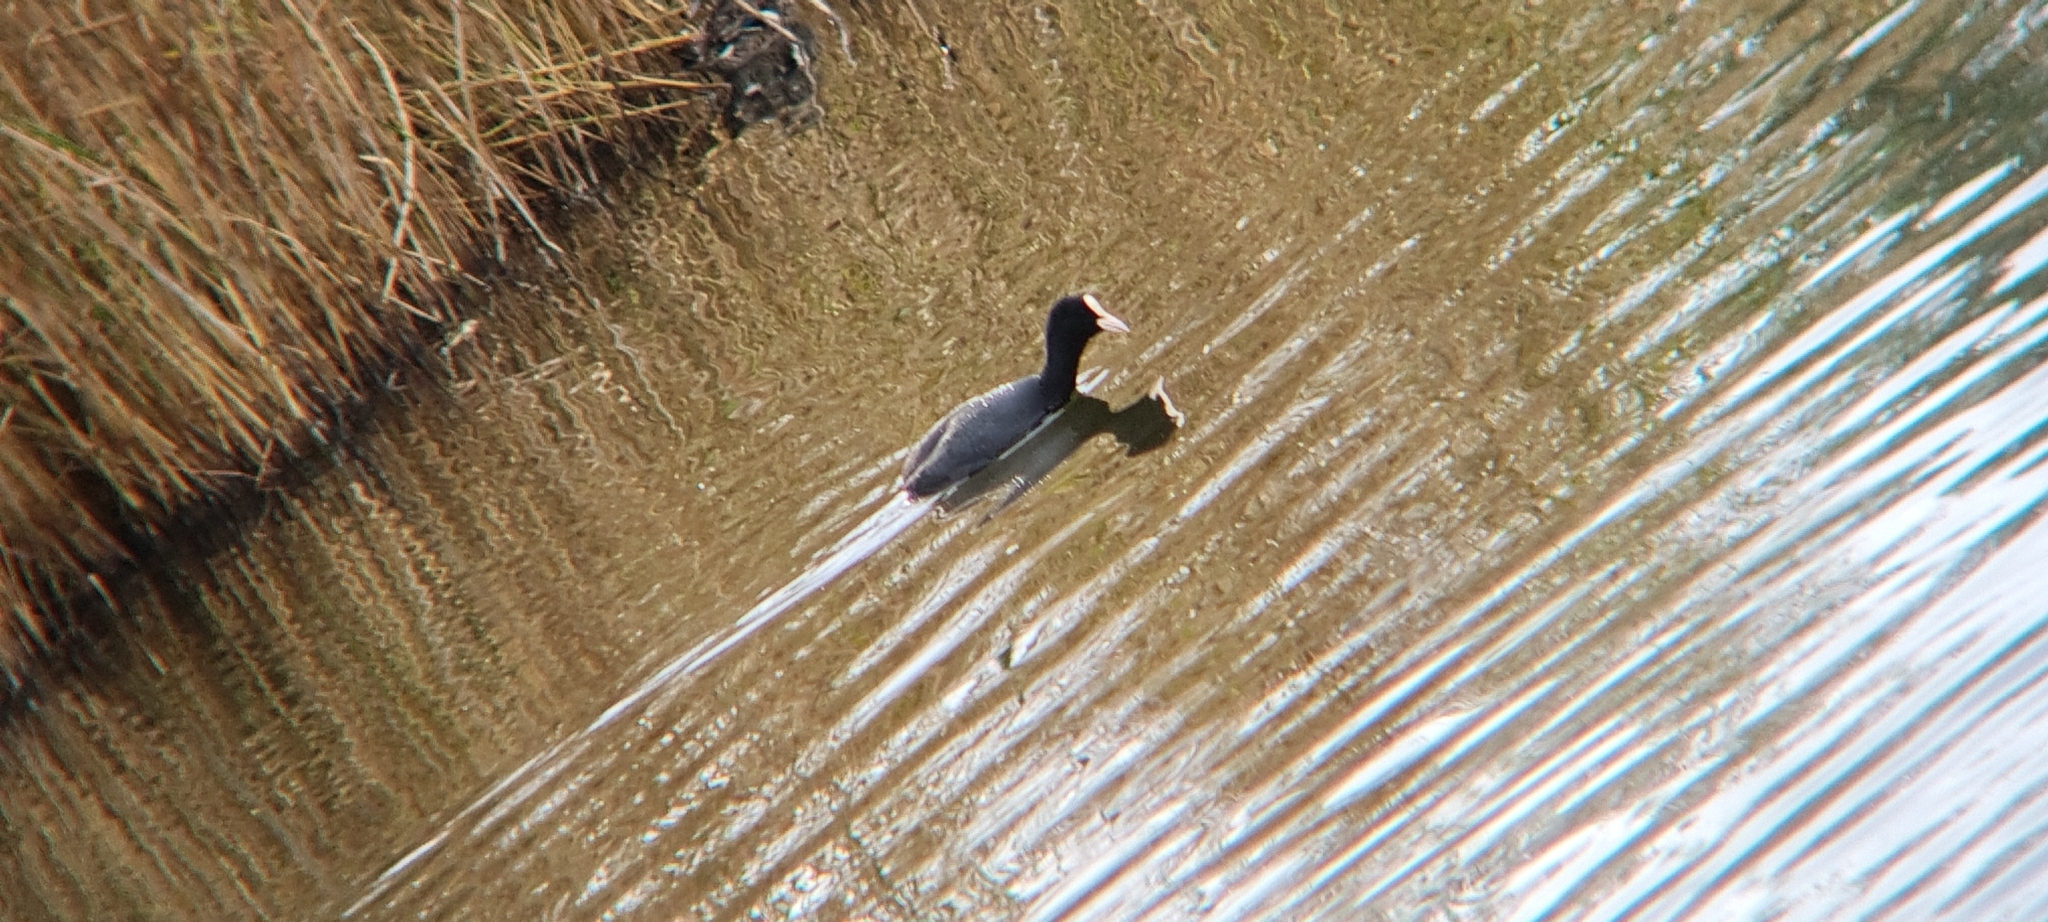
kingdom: Animalia
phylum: Chordata
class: Aves
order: Gruiformes
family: Rallidae
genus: Fulica
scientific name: Fulica atra
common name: Eurasian coot
